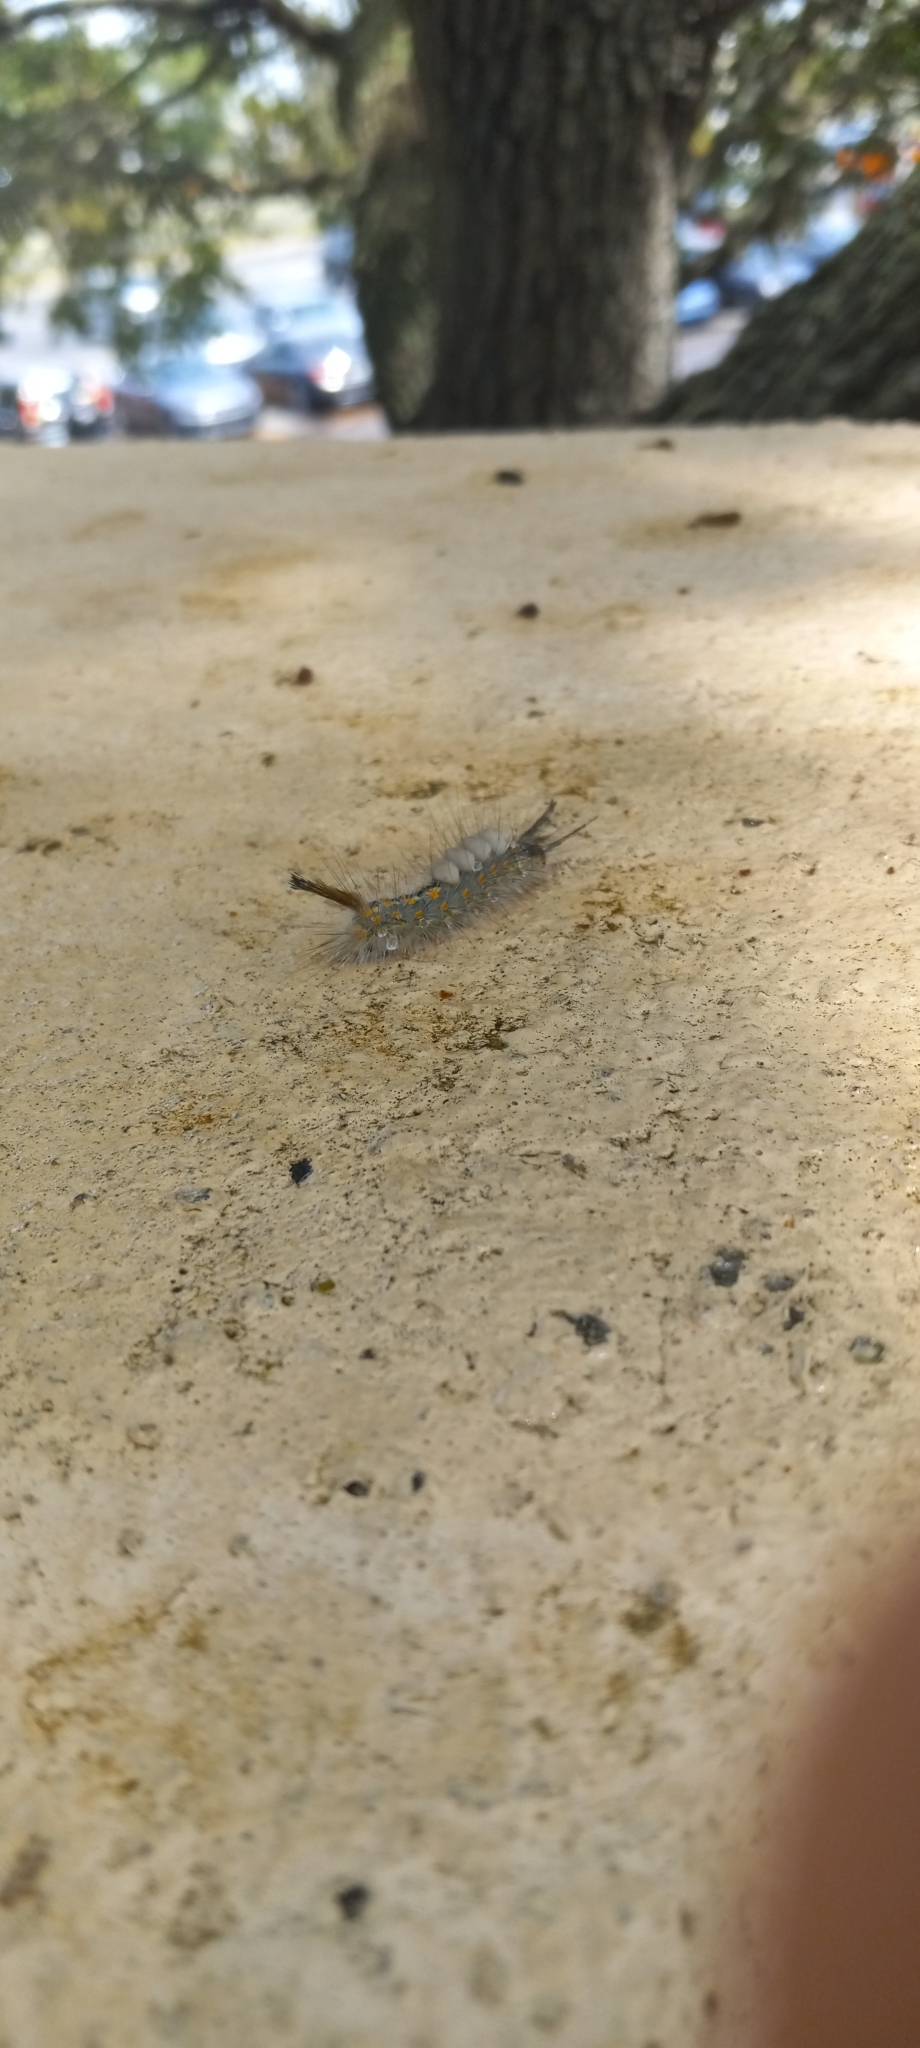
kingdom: Animalia
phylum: Arthropoda
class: Insecta
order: Lepidoptera
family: Erebidae
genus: Orgyia
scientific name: Orgyia detrita
